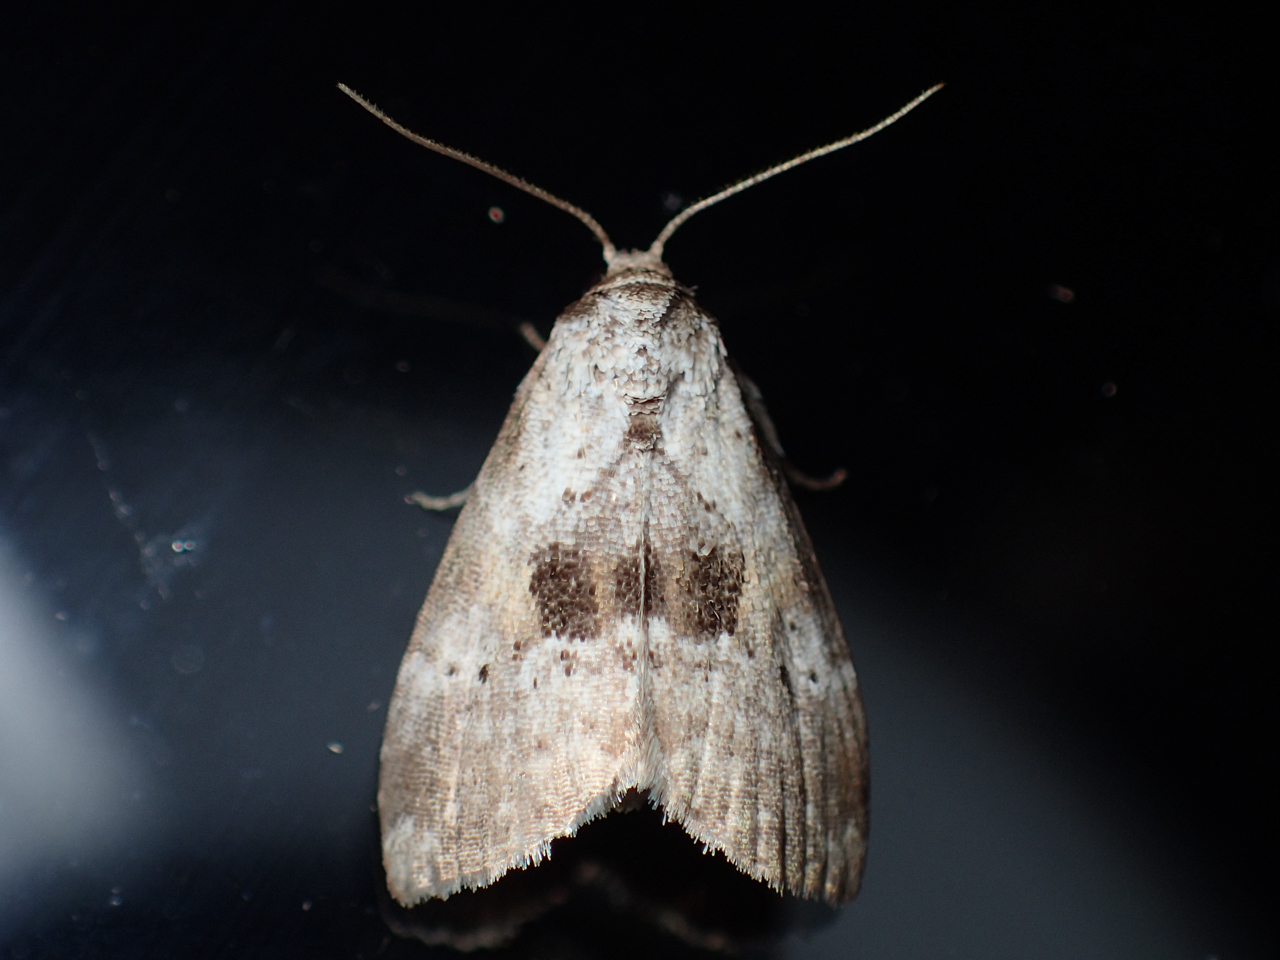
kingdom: Animalia
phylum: Arthropoda
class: Insecta
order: Lepidoptera
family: Erebidae
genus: Hyperstrotia
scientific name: Hyperstrotia secta
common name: Black-patched graylet
